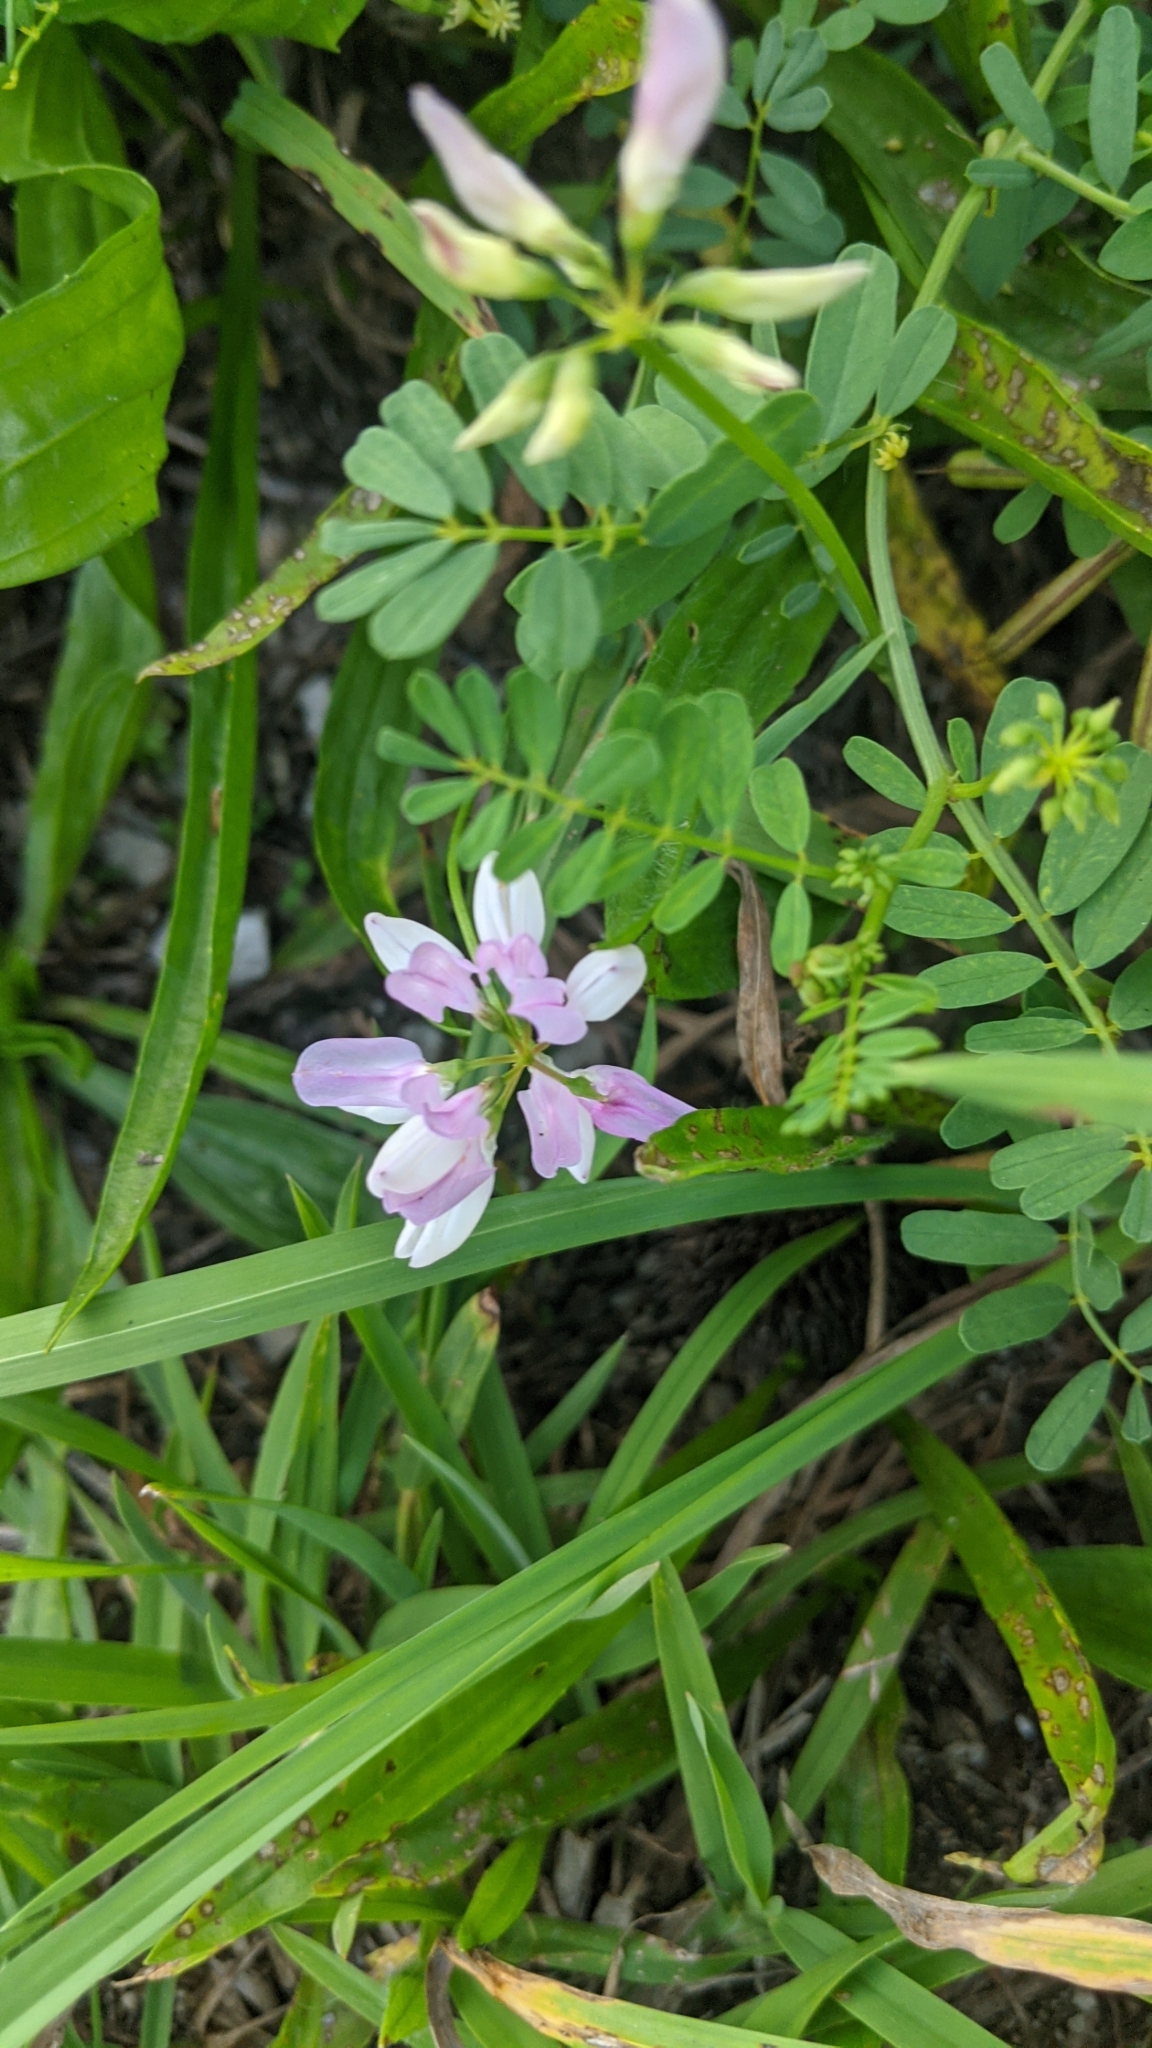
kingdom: Plantae
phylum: Tracheophyta
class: Magnoliopsida
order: Fabales
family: Fabaceae
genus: Coronilla
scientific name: Coronilla varia
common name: Crownvetch
